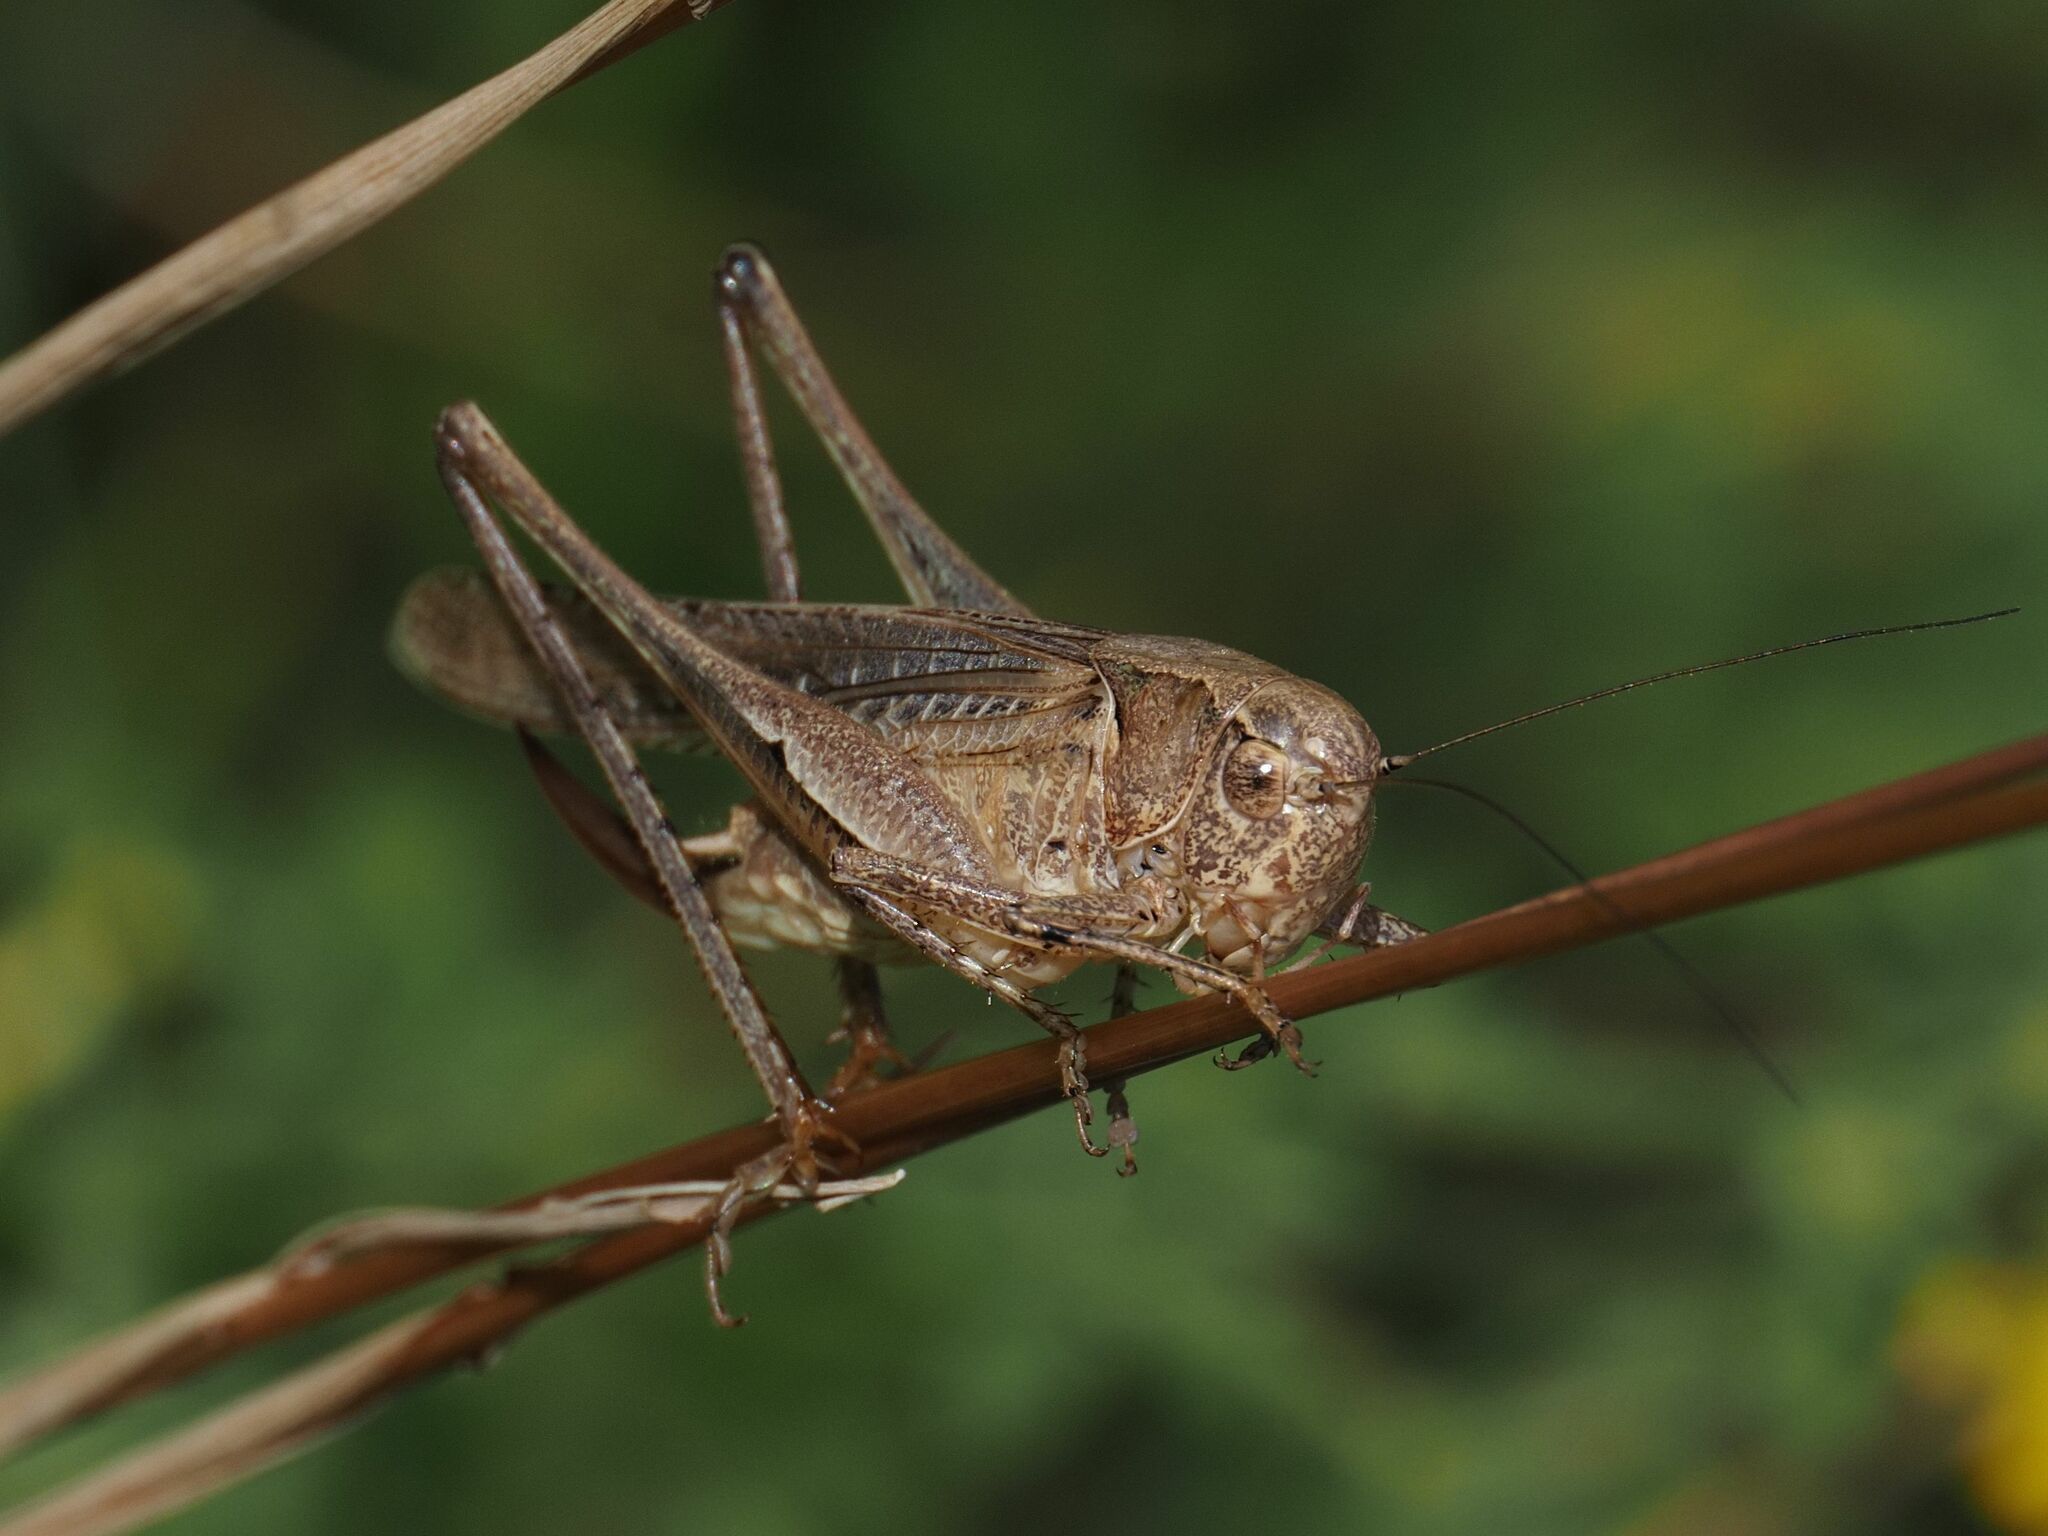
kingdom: Animalia
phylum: Arthropoda
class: Insecta
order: Orthoptera
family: Tettigoniidae
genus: Platycleis
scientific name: Platycleis grisea
